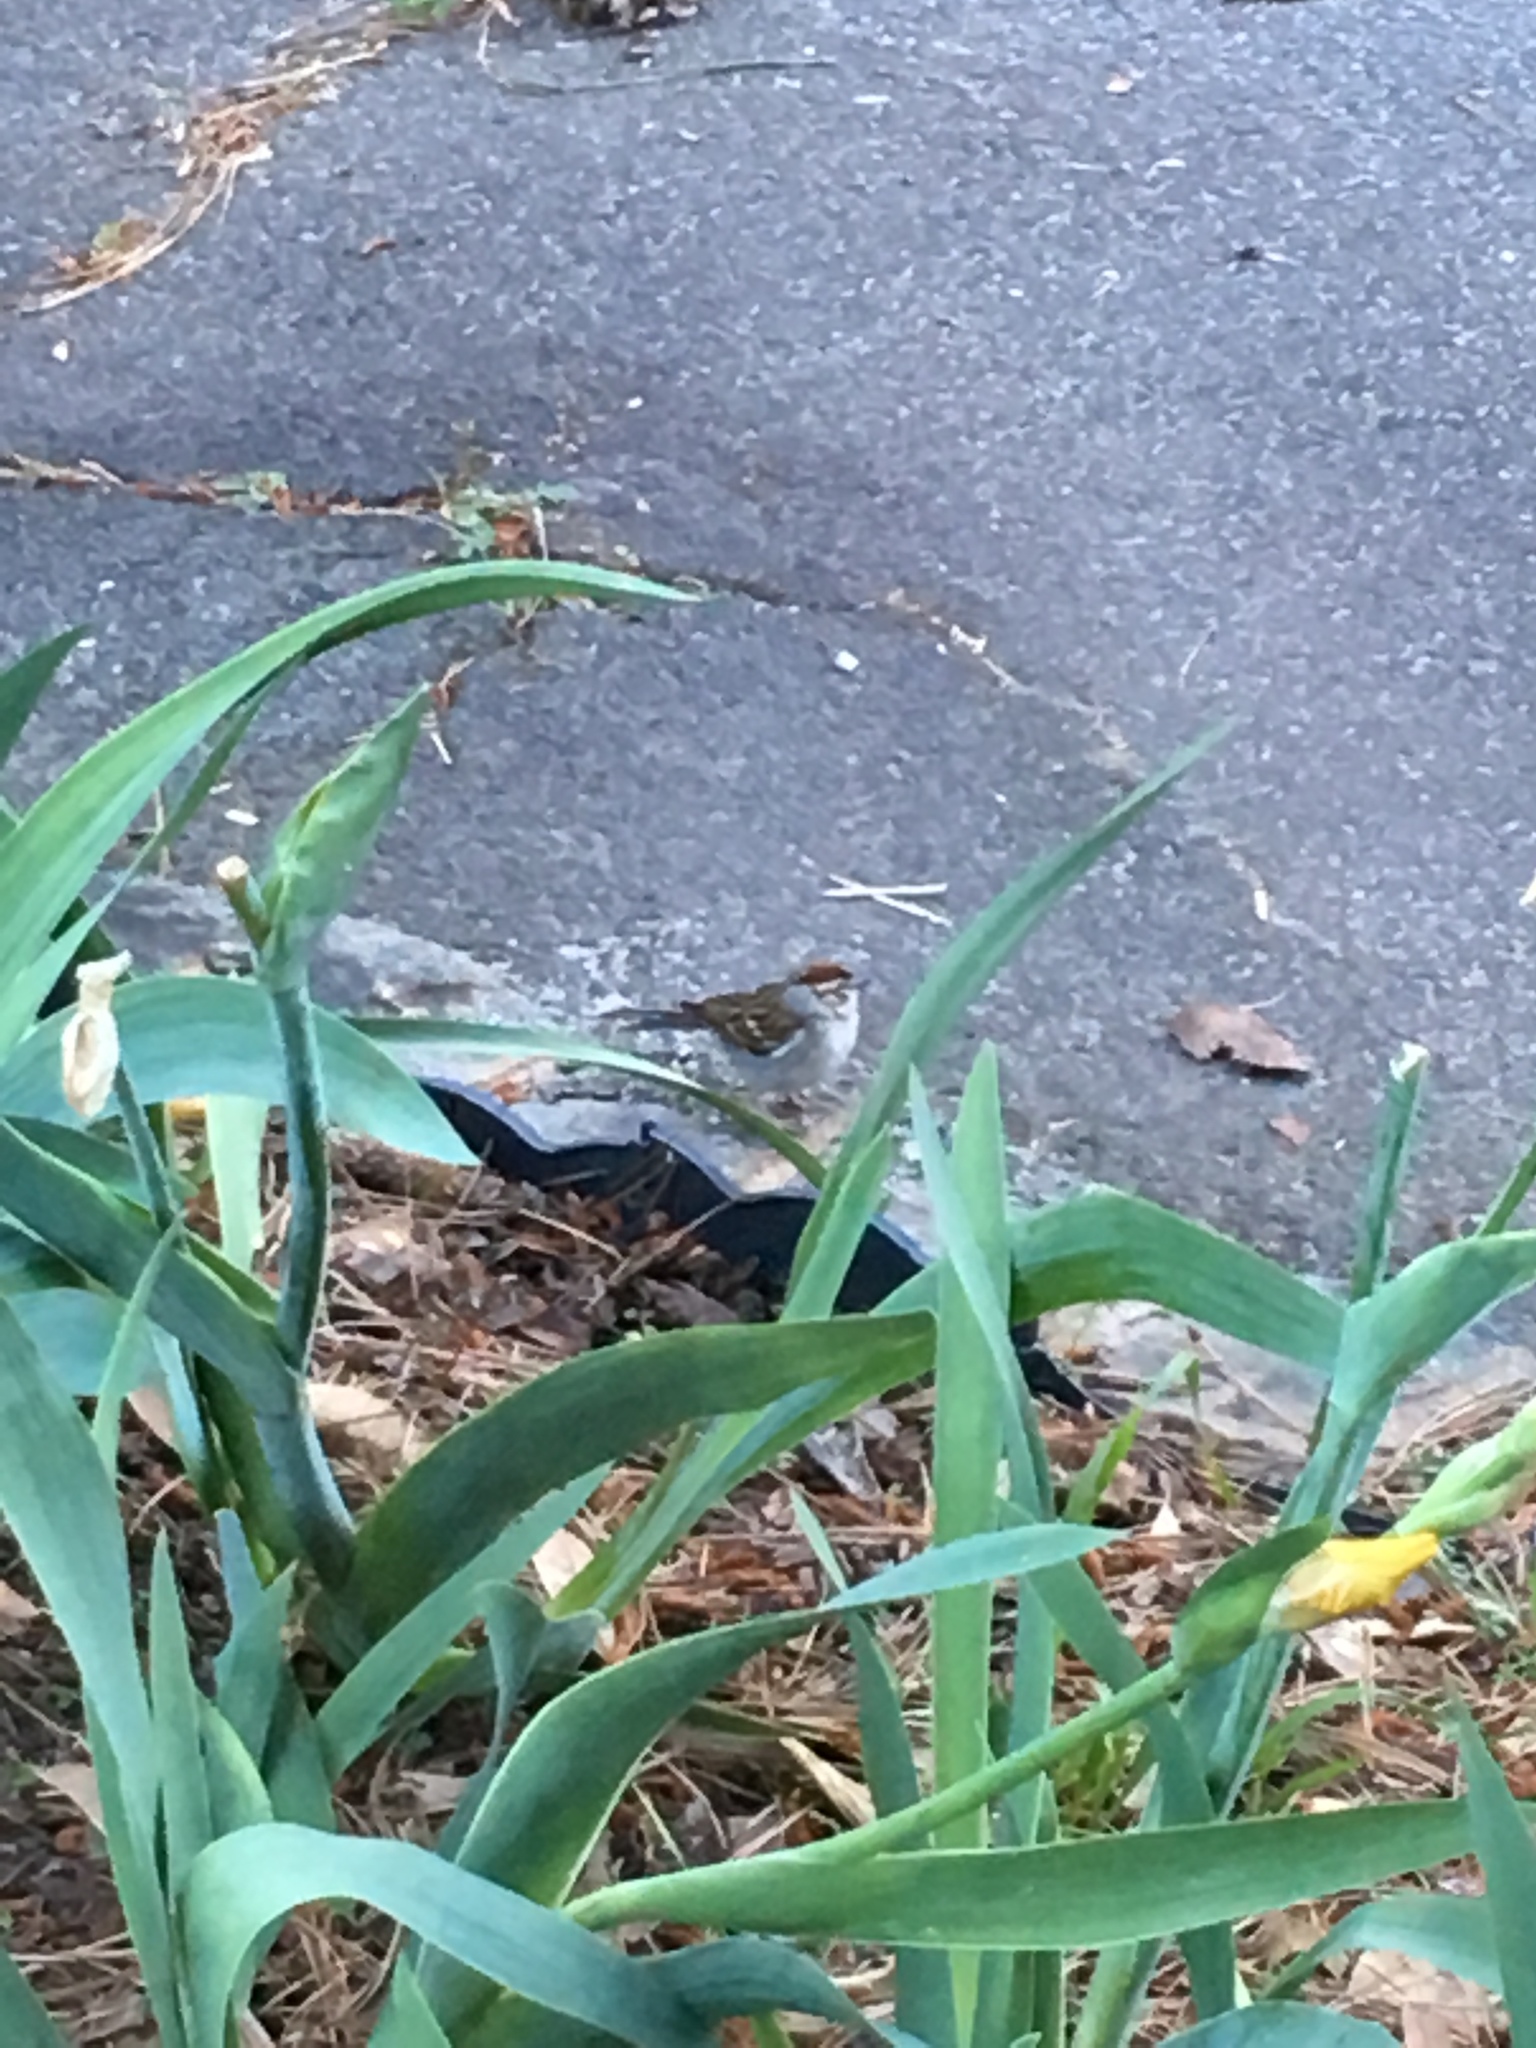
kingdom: Animalia
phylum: Chordata
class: Aves
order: Passeriformes
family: Passerellidae
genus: Spizella
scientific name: Spizella passerina
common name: Chipping sparrow
